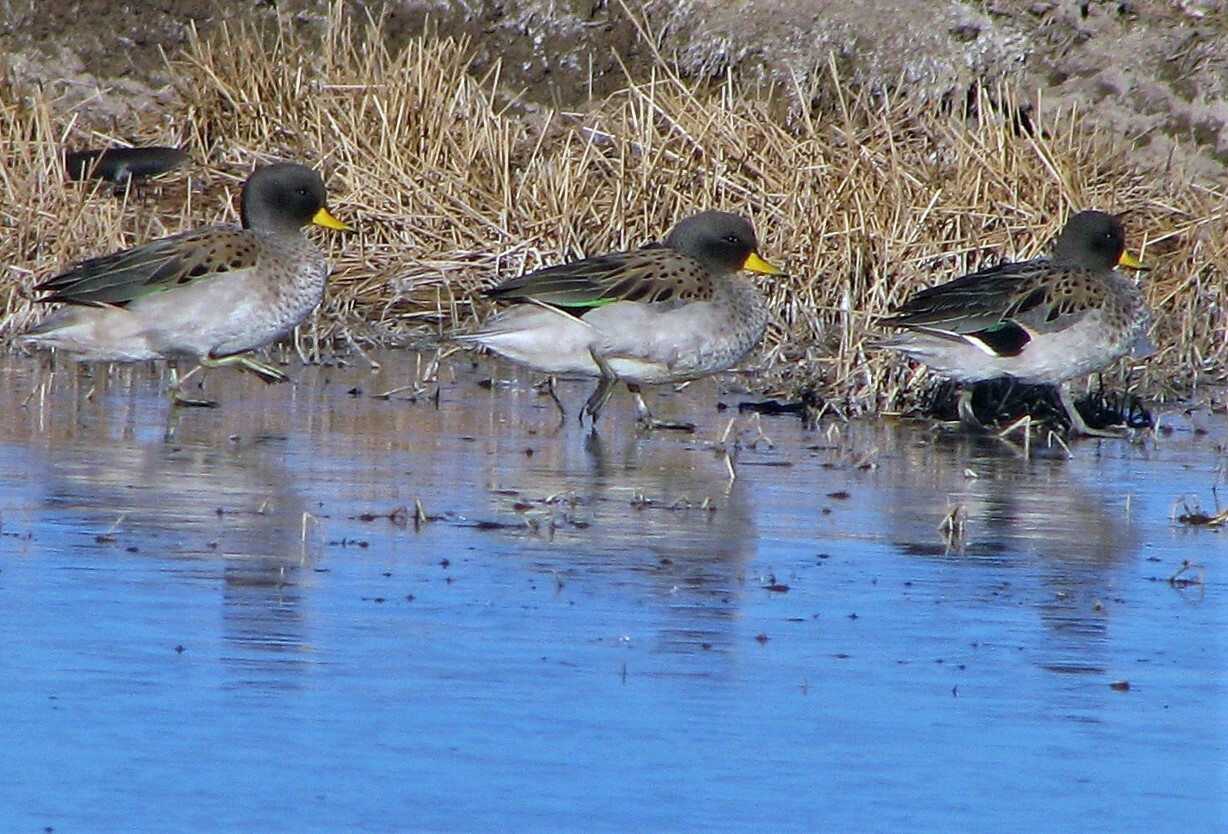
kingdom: Animalia
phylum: Chordata
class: Aves
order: Anseriformes
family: Anatidae
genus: Anas
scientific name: Anas flavirostris
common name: Yellow-billed teal
